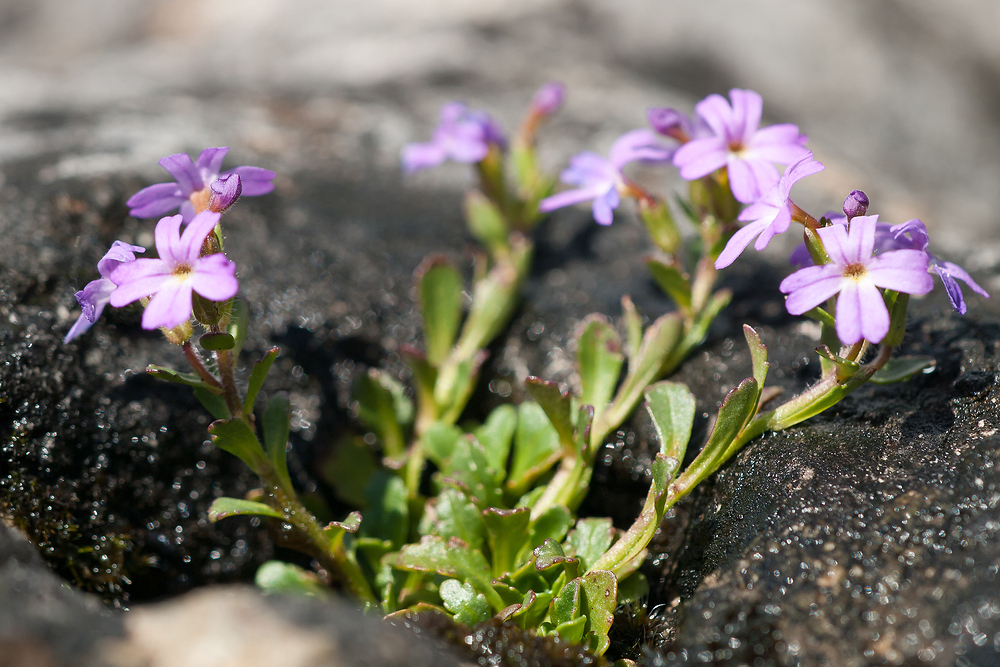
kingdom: Plantae
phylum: Tracheophyta
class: Magnoliopsida
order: Lamiales
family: Plantaginaceae
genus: Erinus
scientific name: Erinus alpinus
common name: Fairy foxglove
